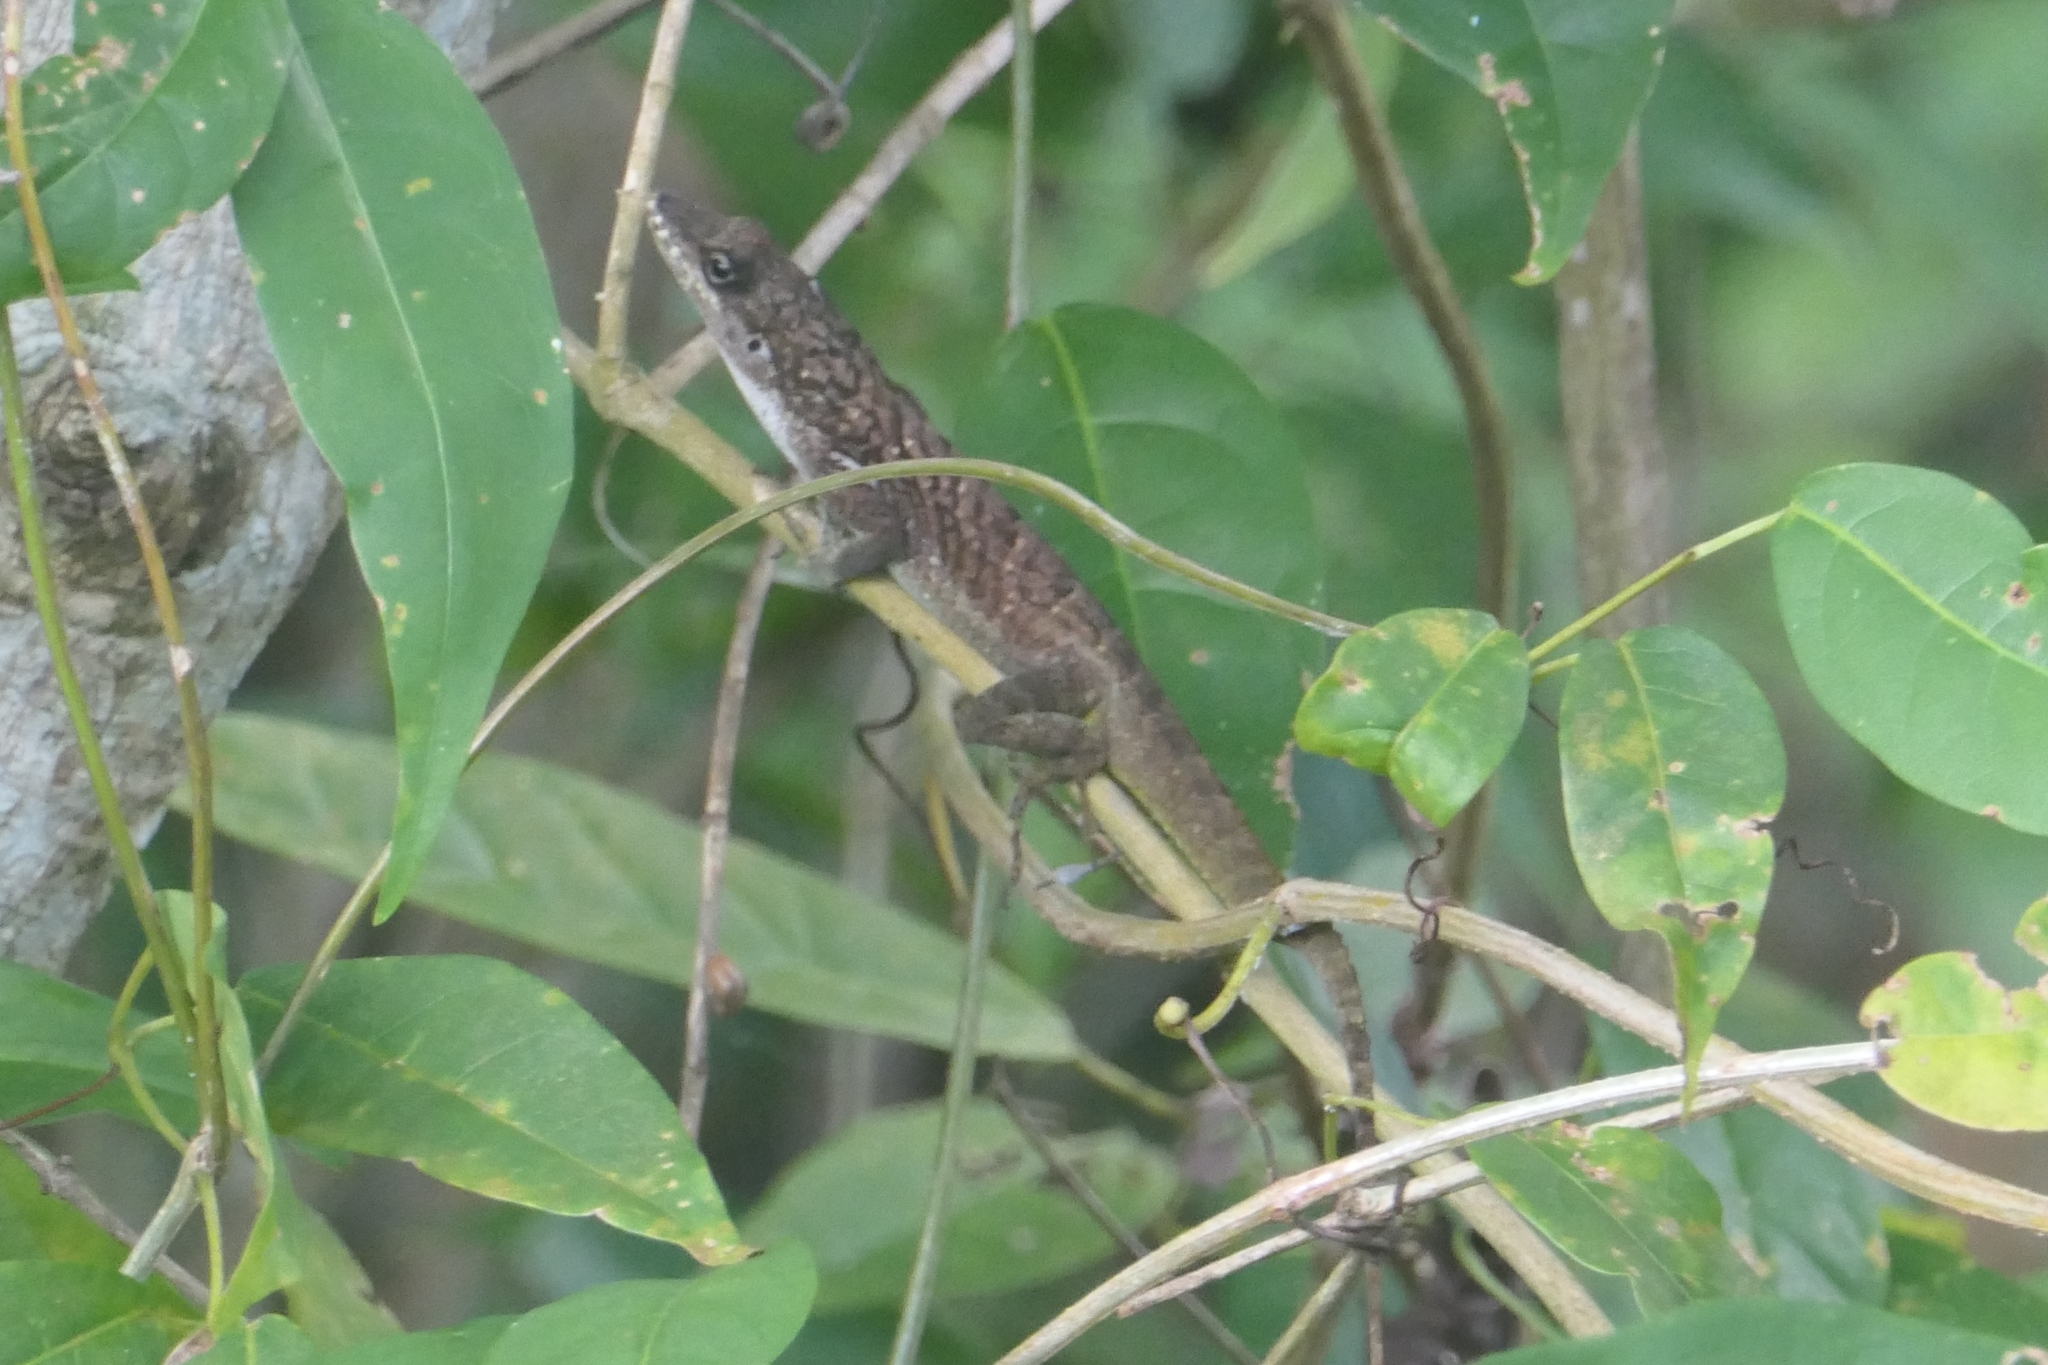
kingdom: Animalia
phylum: Chordata
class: Squamata
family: Dactyloidae
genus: Anolis
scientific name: Anolis roquet
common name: Martinique anole
